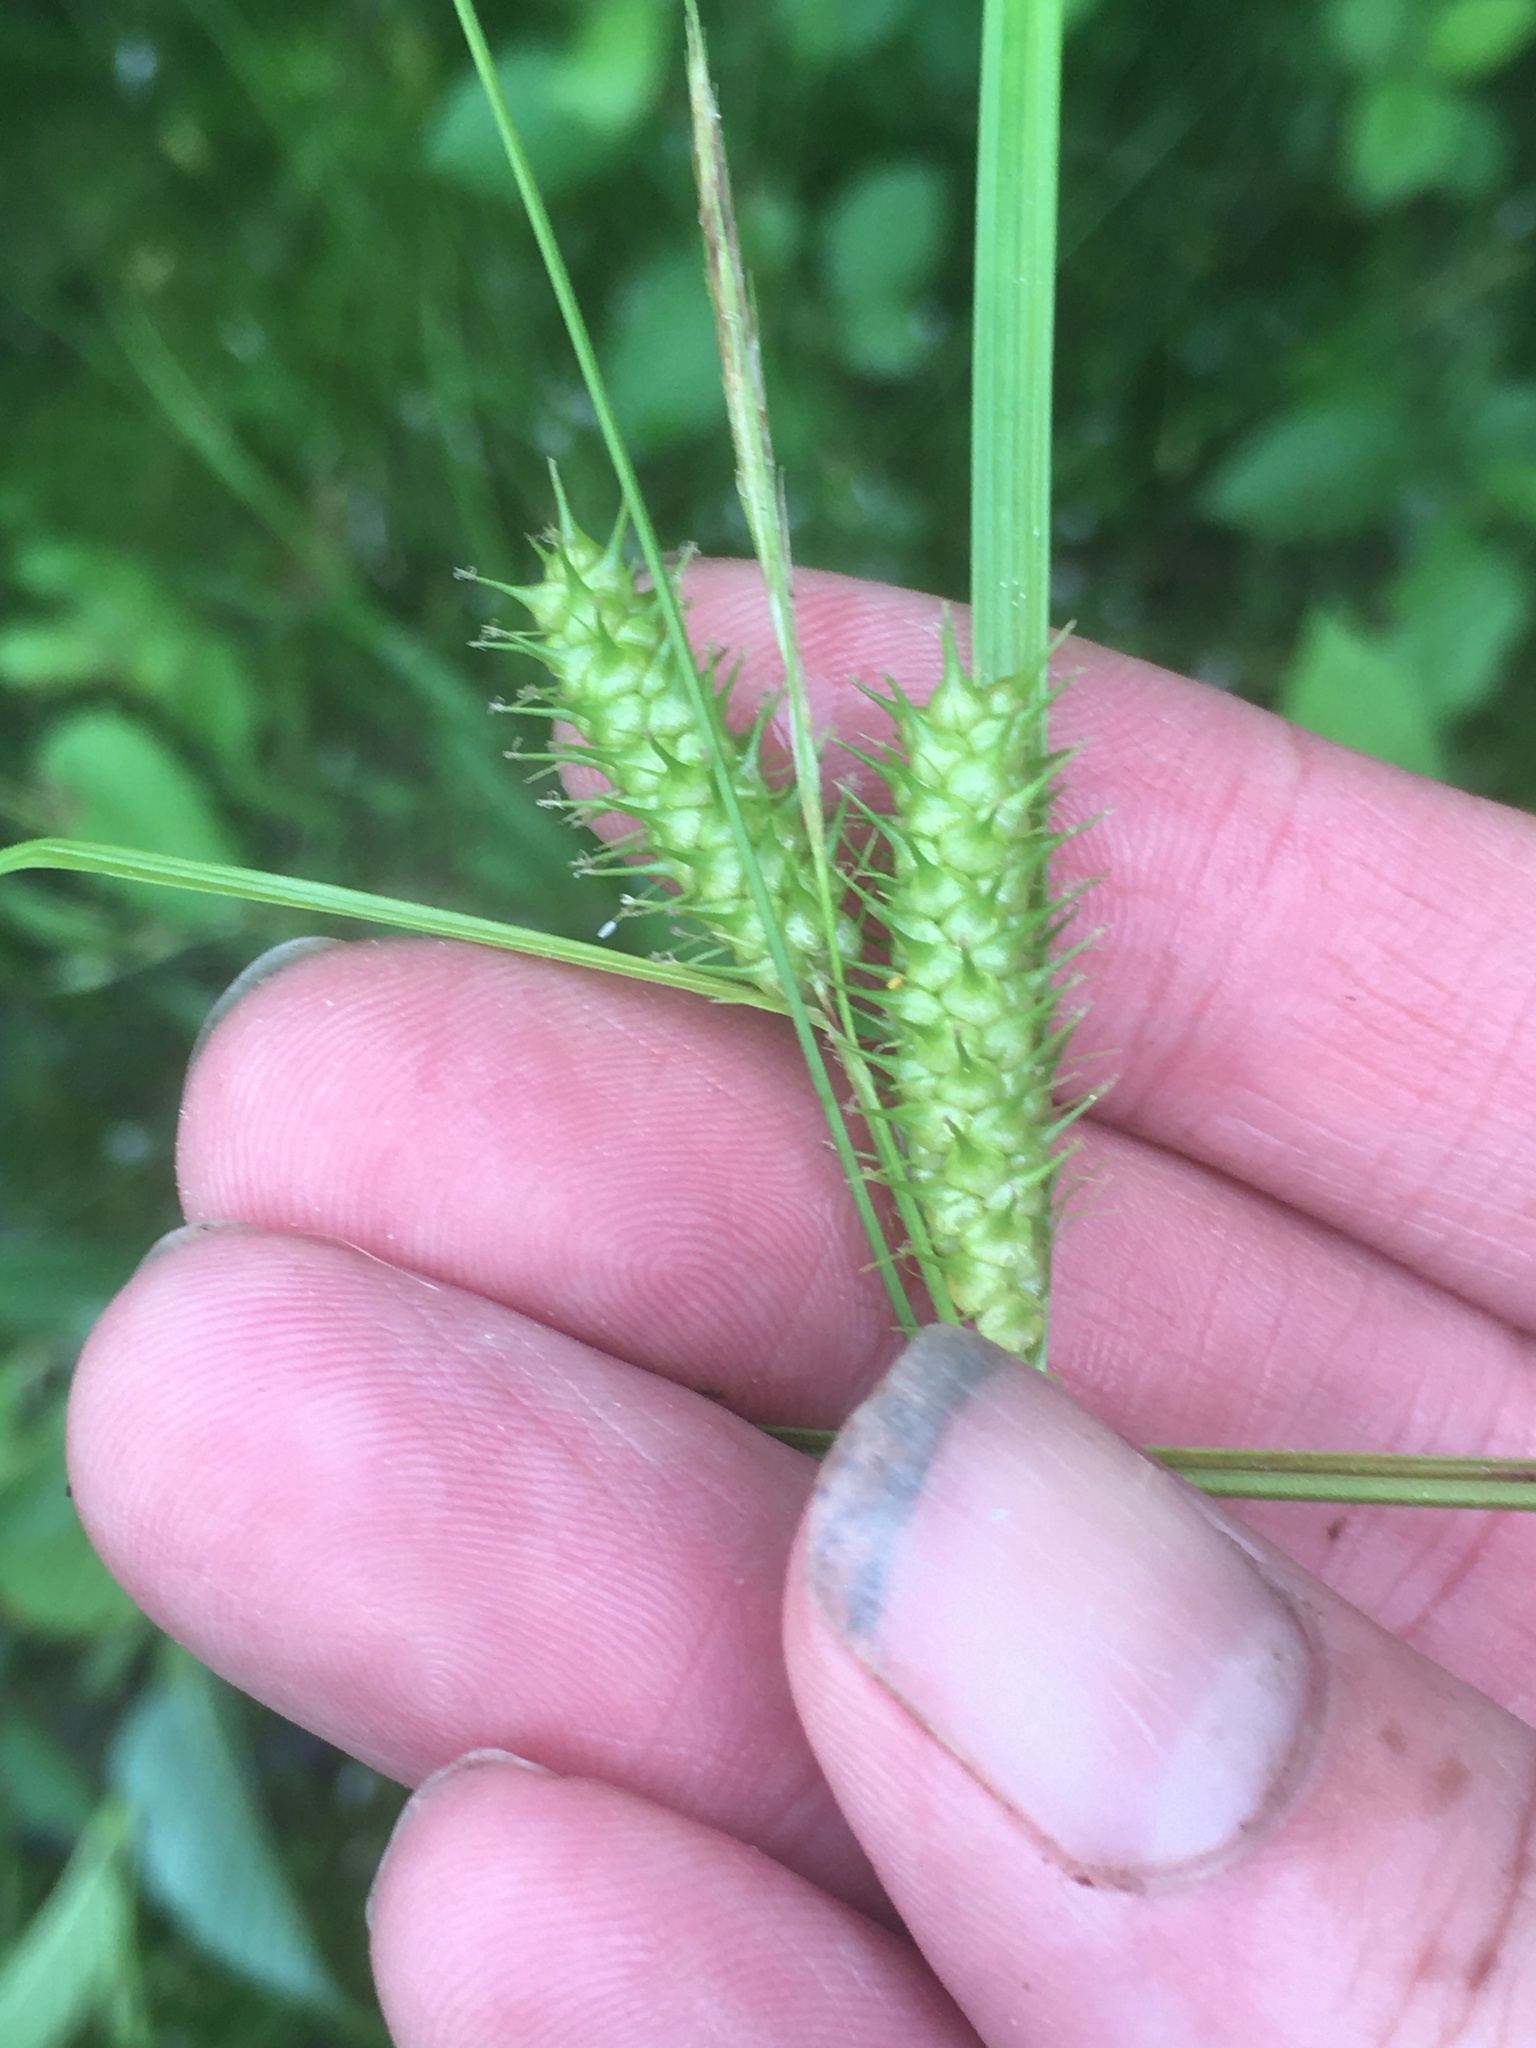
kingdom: Plantae
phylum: Tracheophyta
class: Liliopsida
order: Poales
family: Cyperaceae
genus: Carex
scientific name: Carex baileyi
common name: Bailey's sedge
